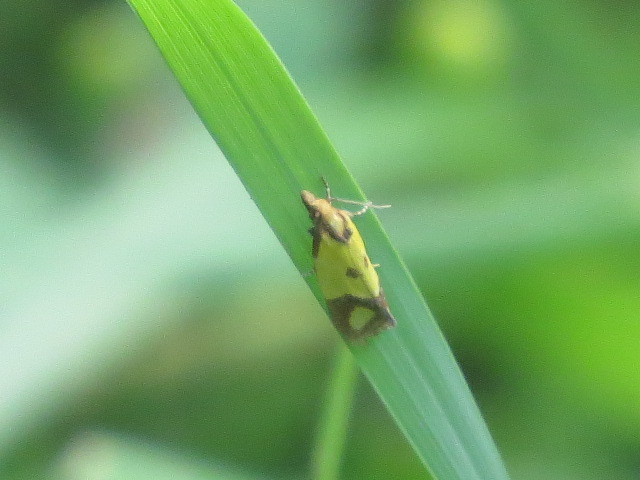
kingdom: Animalia
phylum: Arthropoda
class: Insecta
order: Lepidoptera
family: Tortricidae
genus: Agapeta
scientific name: Agapeta zoegana
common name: Sulfur knapweed root moth
